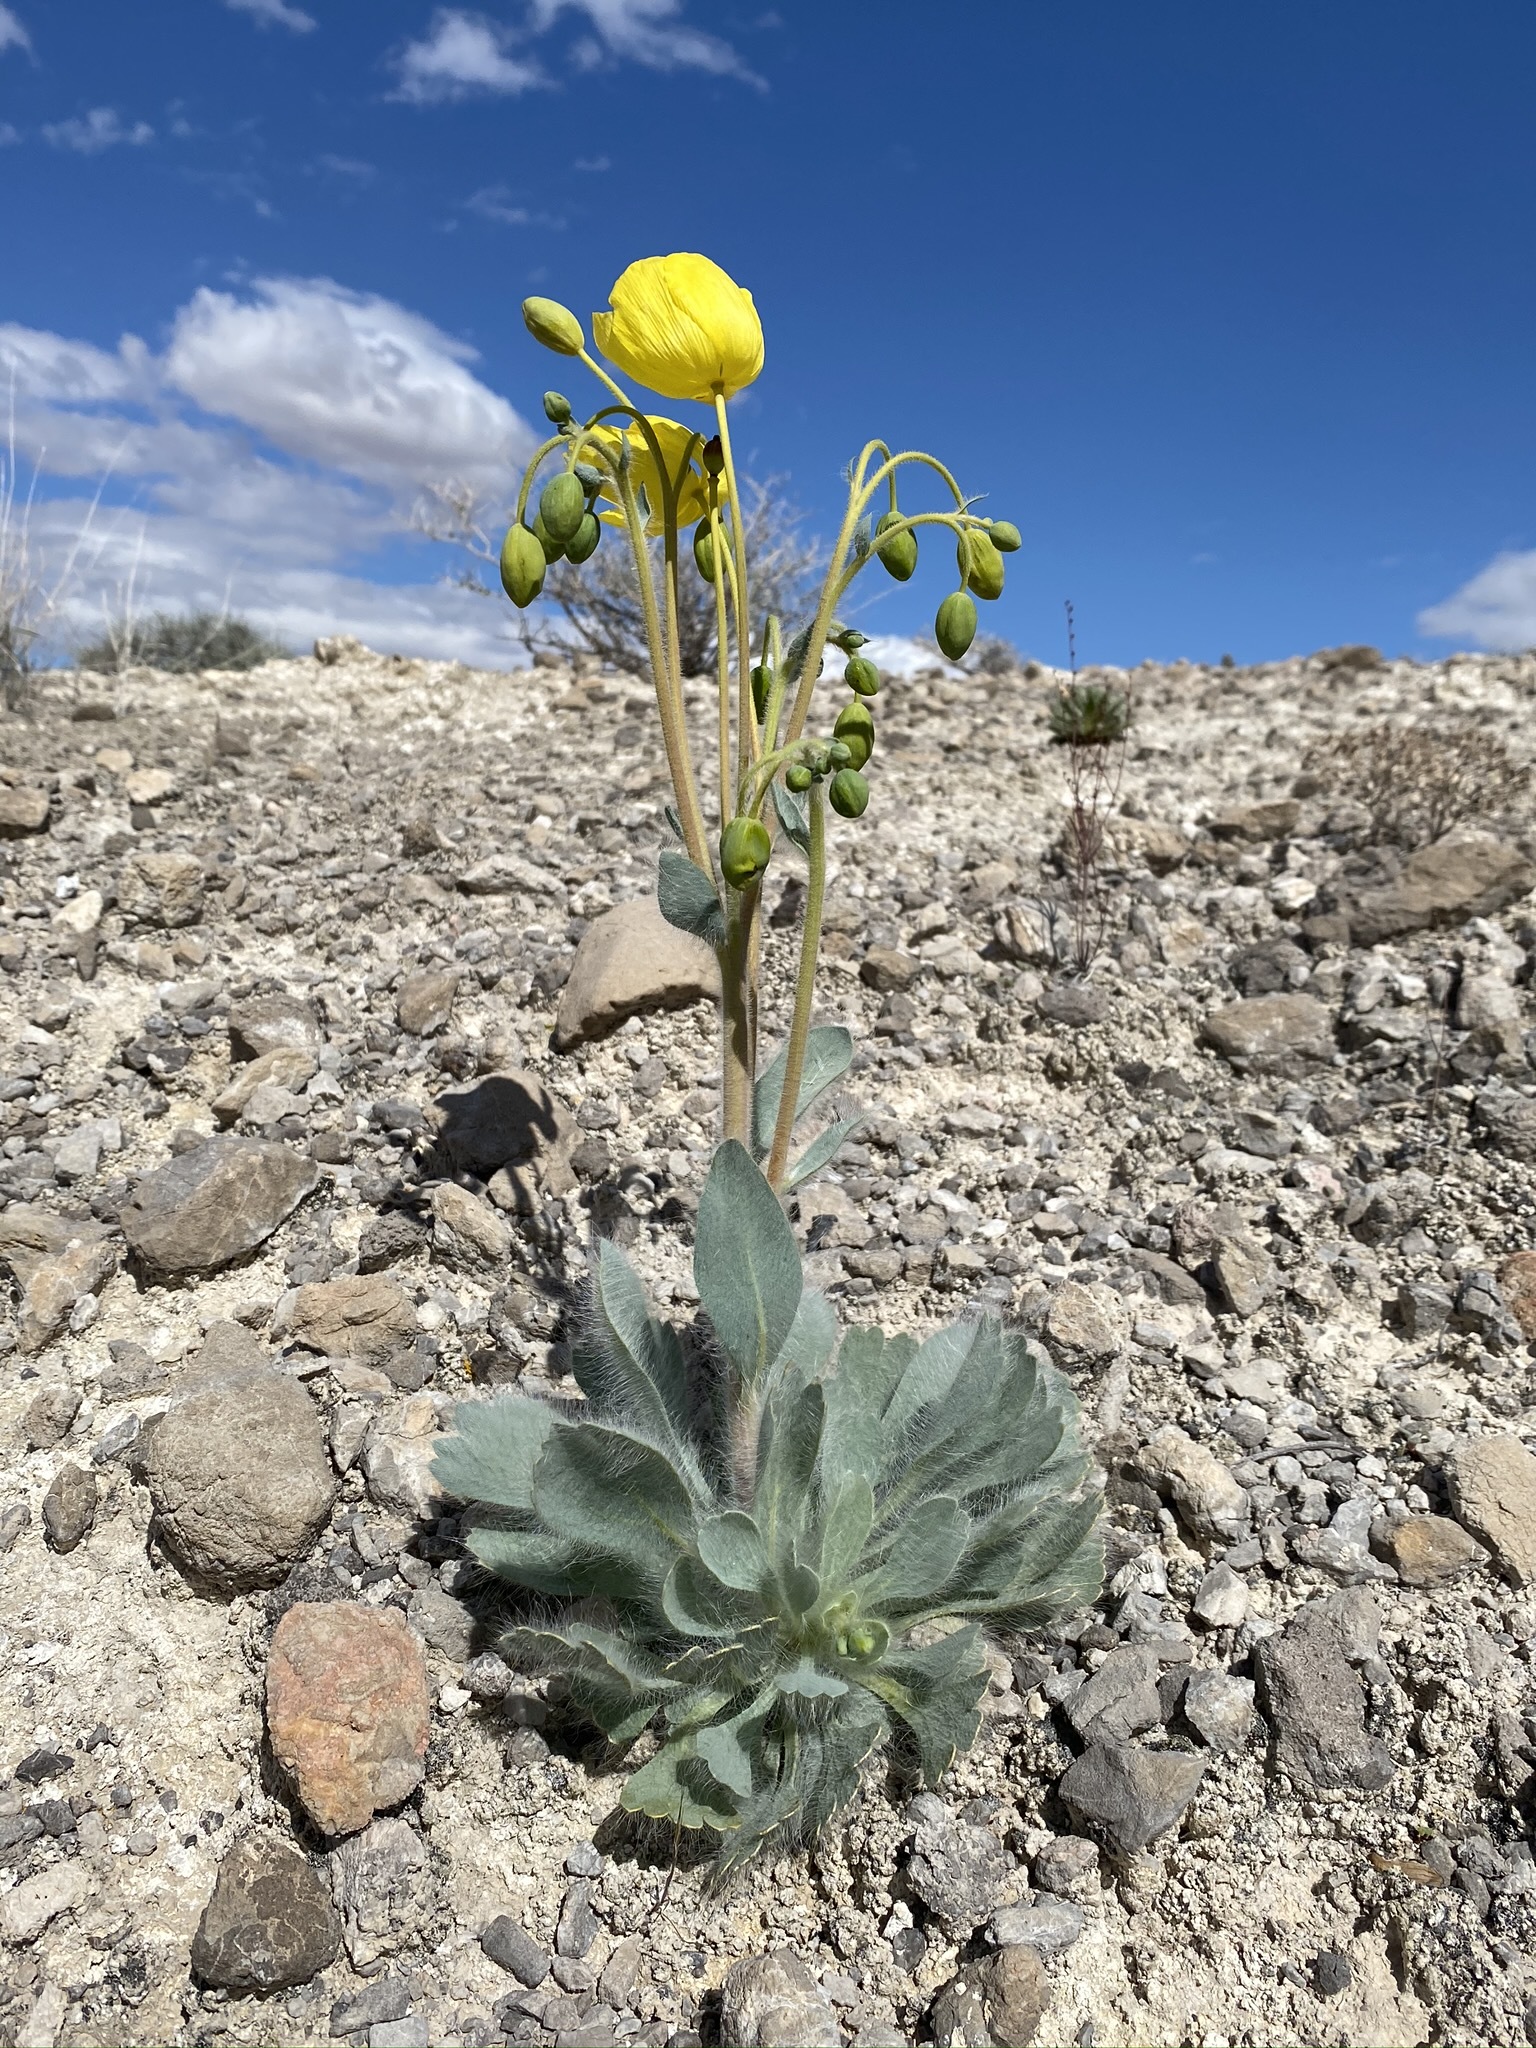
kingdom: Plantae
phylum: Tracheophyta
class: Magnoliopsida
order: Ranunculales
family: Papaveraceae
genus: Arctomecon
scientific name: Arctomecon californicum
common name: Golden bearclaw-poppy
